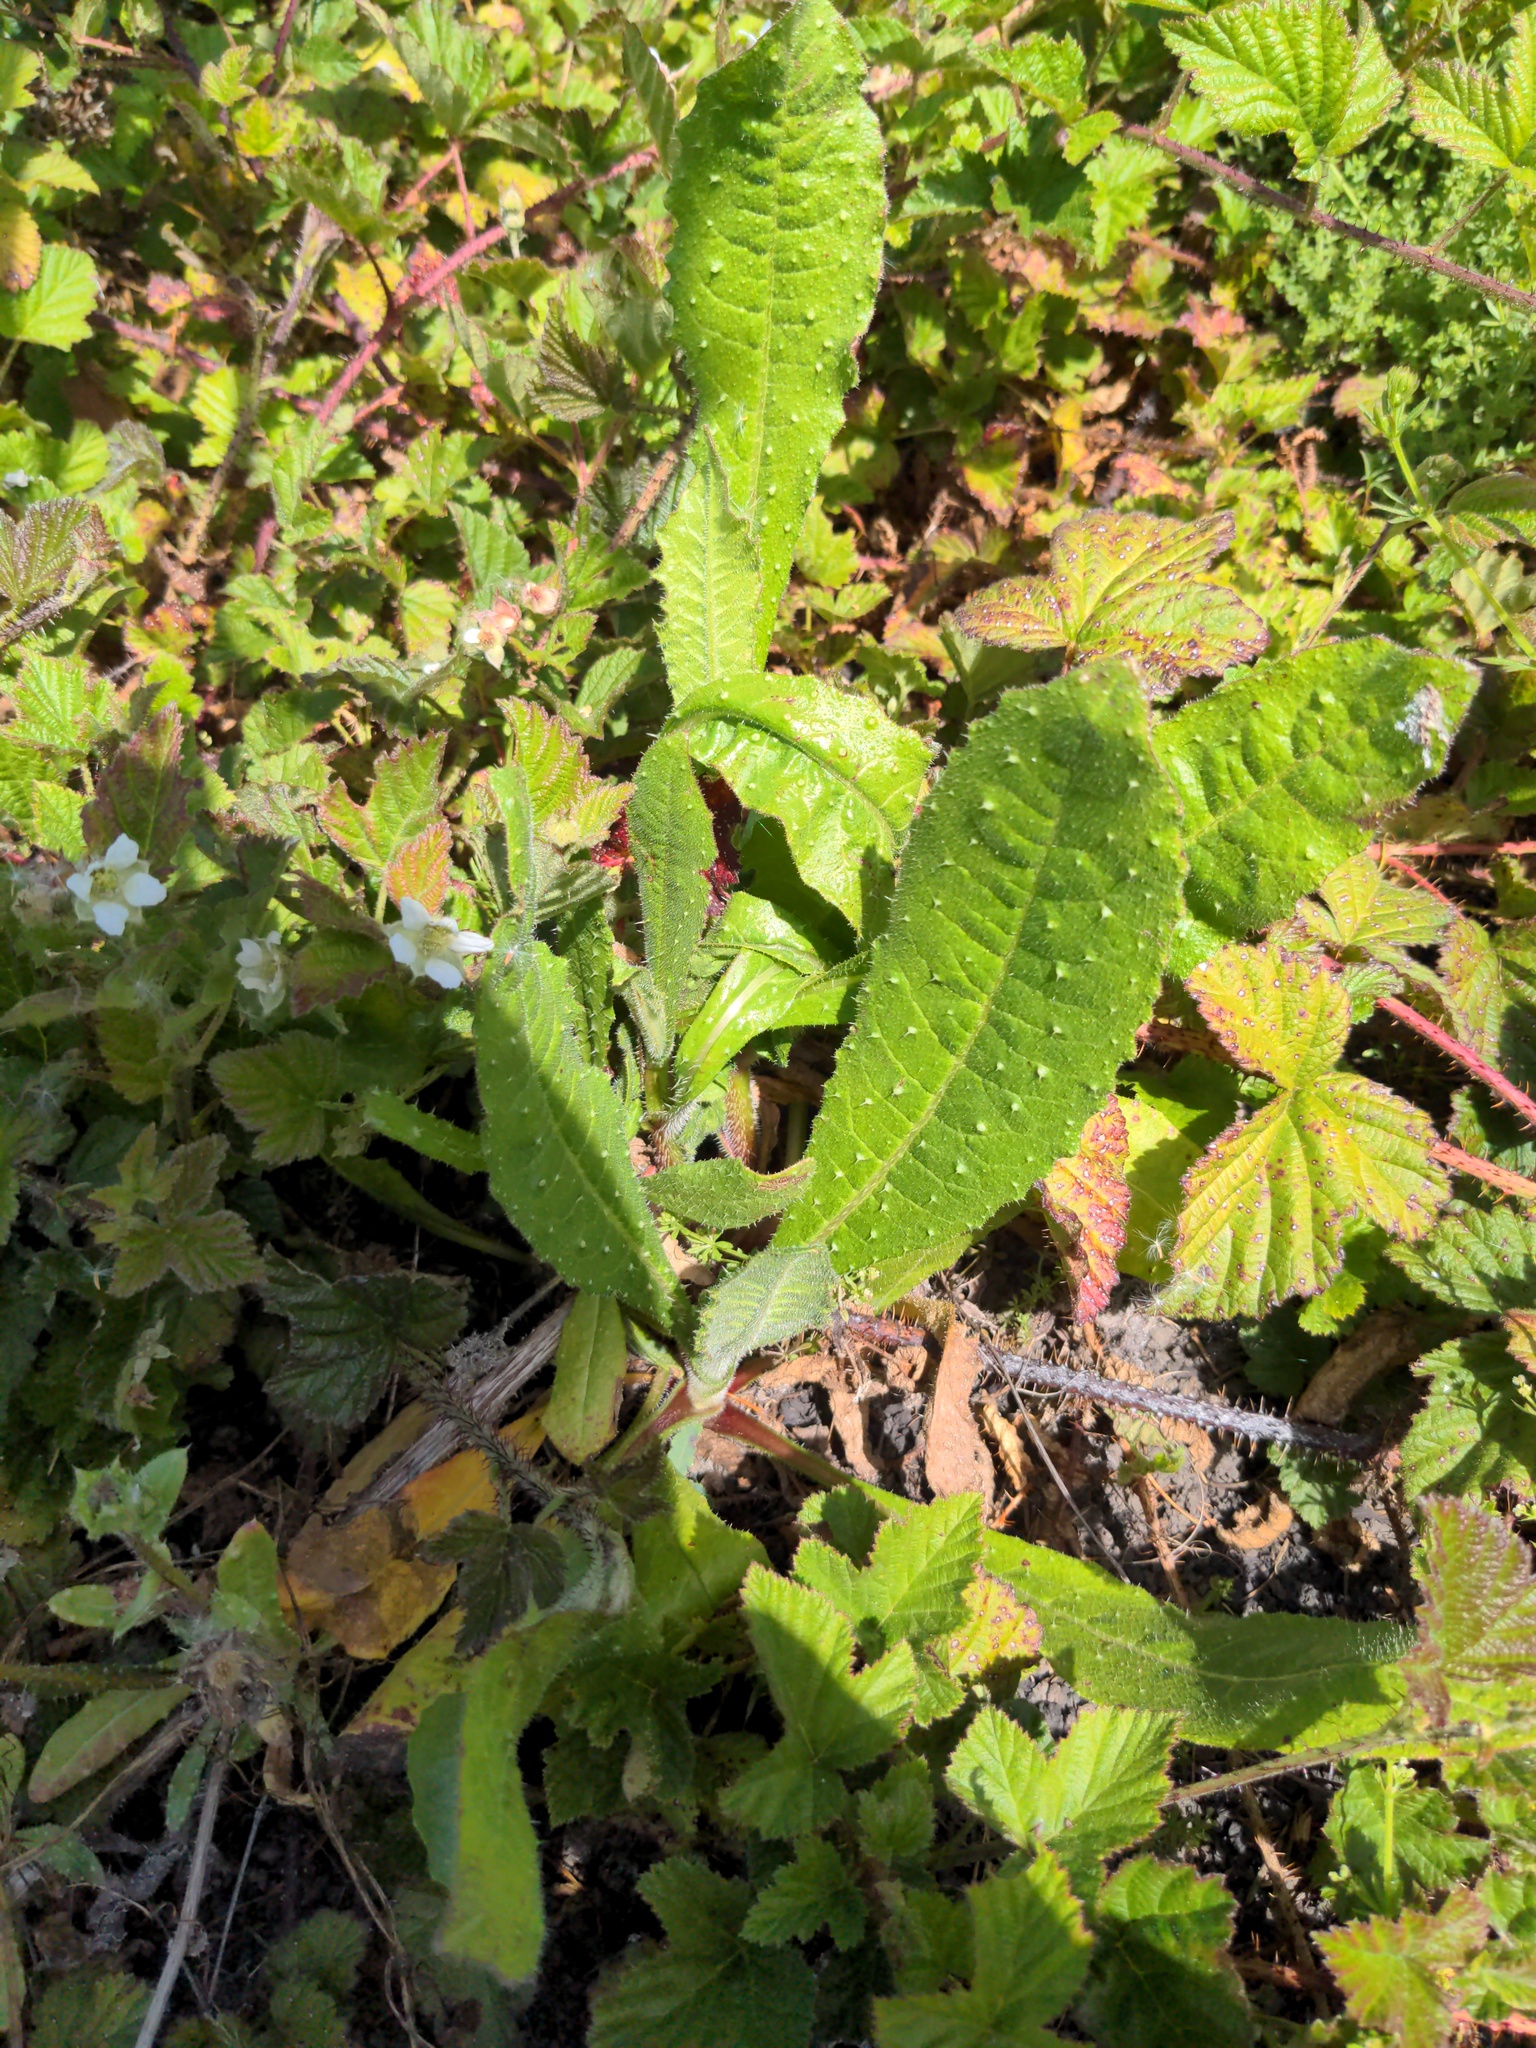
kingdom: Plantae
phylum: Tracheophyta
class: Magnoliopsida
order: Asterales
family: Asteraceae
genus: Helminthotheca
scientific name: Helminthotheca echioides
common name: Ox-tongue
